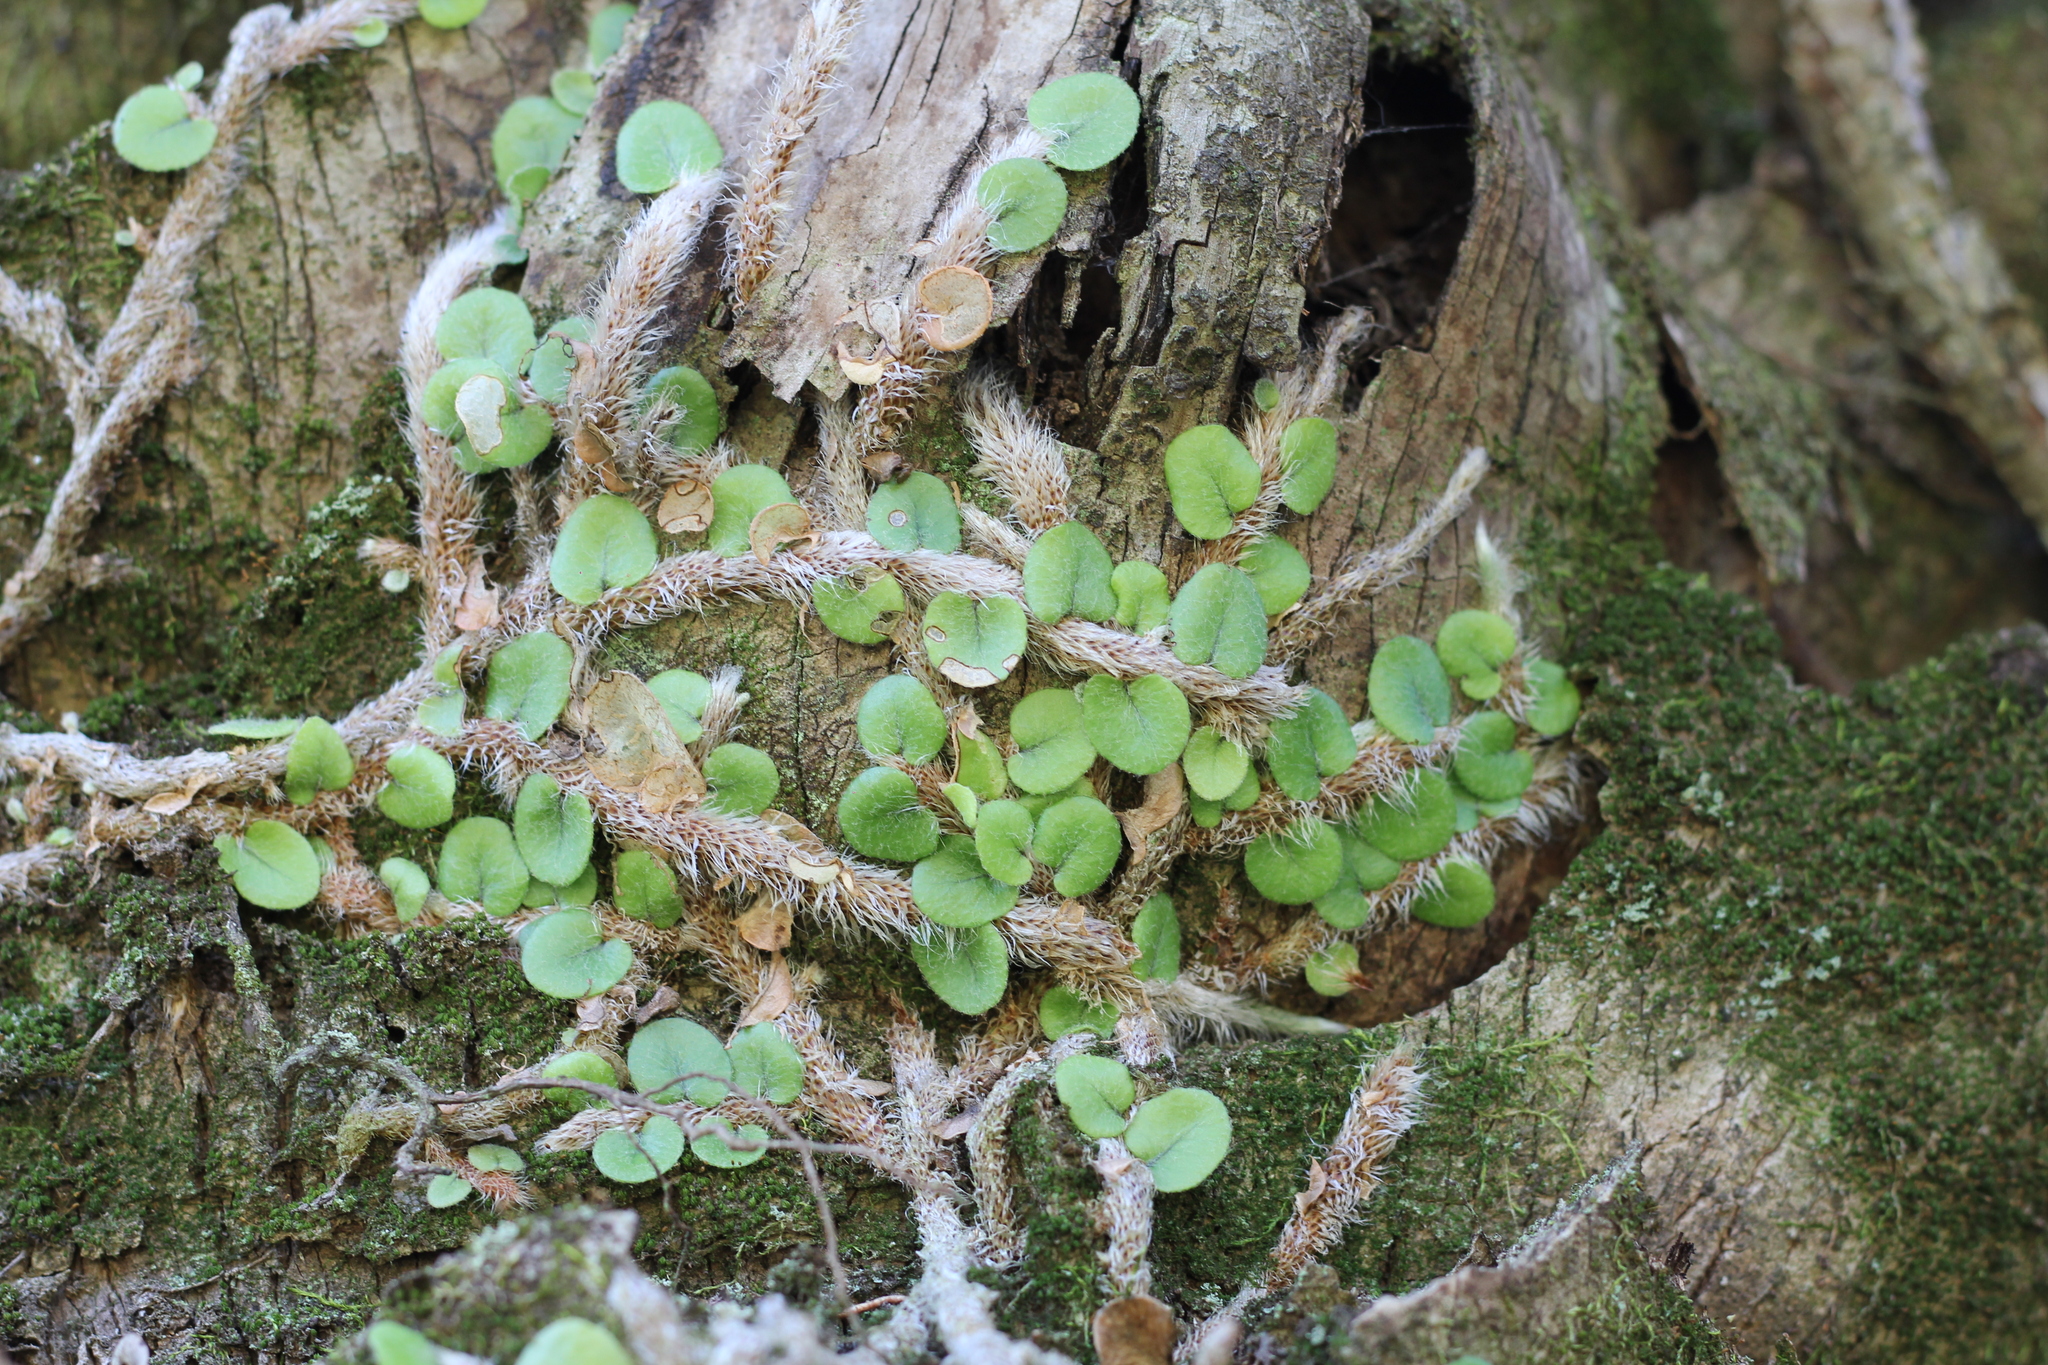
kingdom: Plantae
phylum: Tracheophyta
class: Polypodiopsida
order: Polypodiales
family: Polypodiaceae
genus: Microgramma
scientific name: Microgramma vaccinifolia
